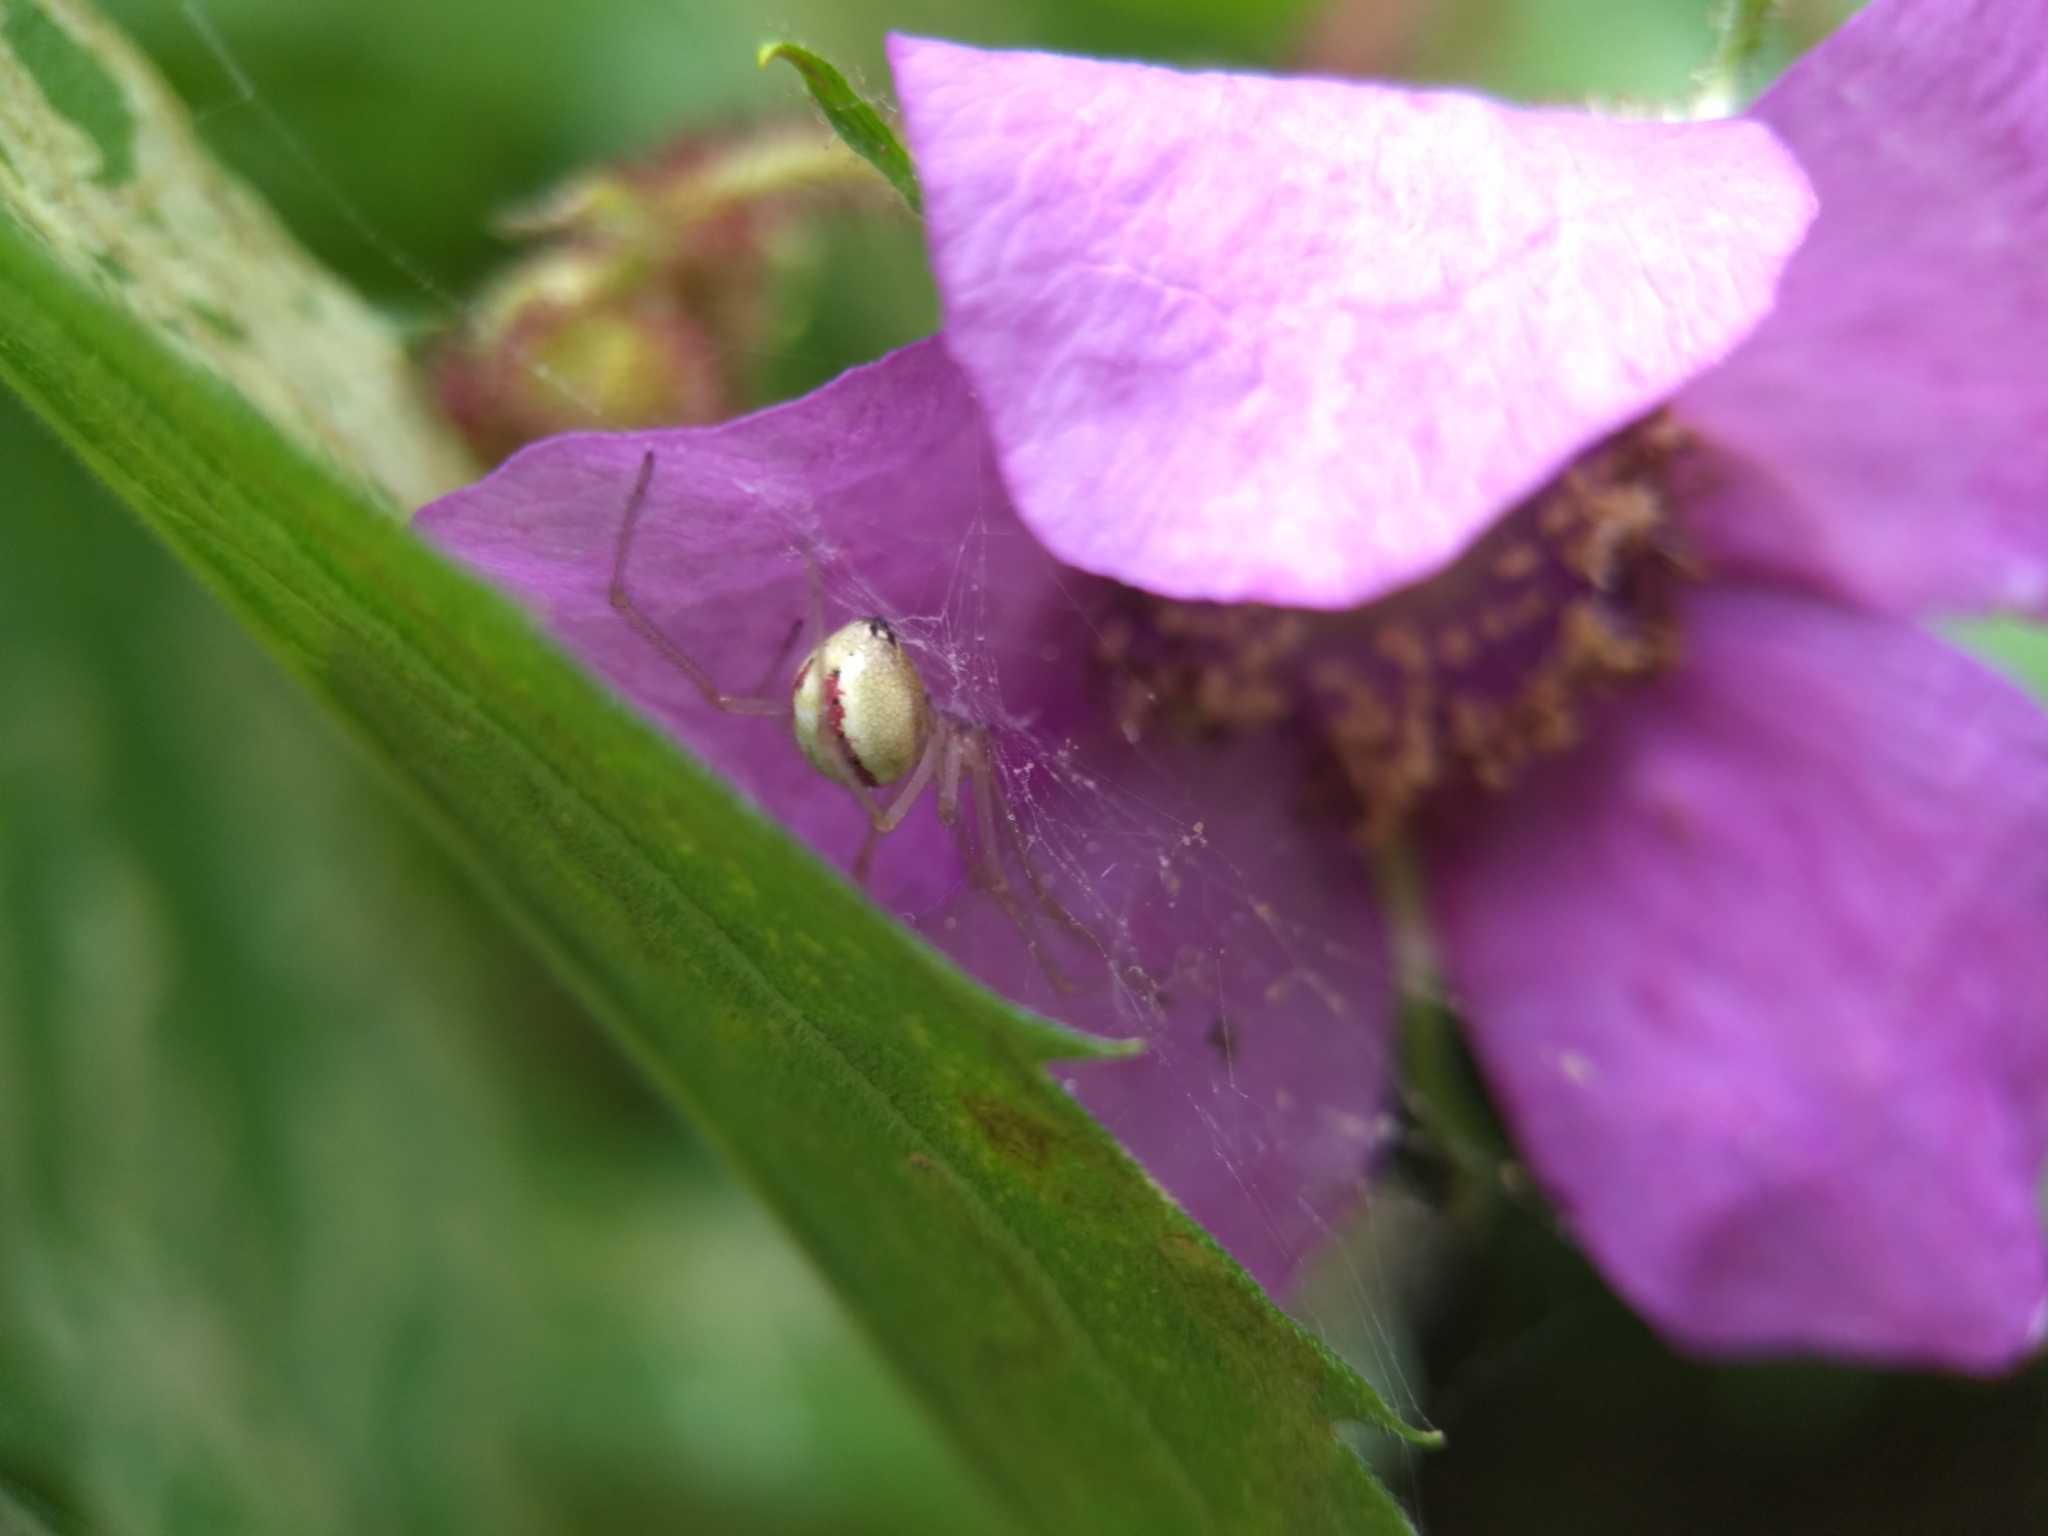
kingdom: Animalia
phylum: Arthropoda
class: Arachnida
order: Araneae
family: Theridiidae
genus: Enoplognatha
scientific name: Enoplognatha ovata
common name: Common candy-striped spider
